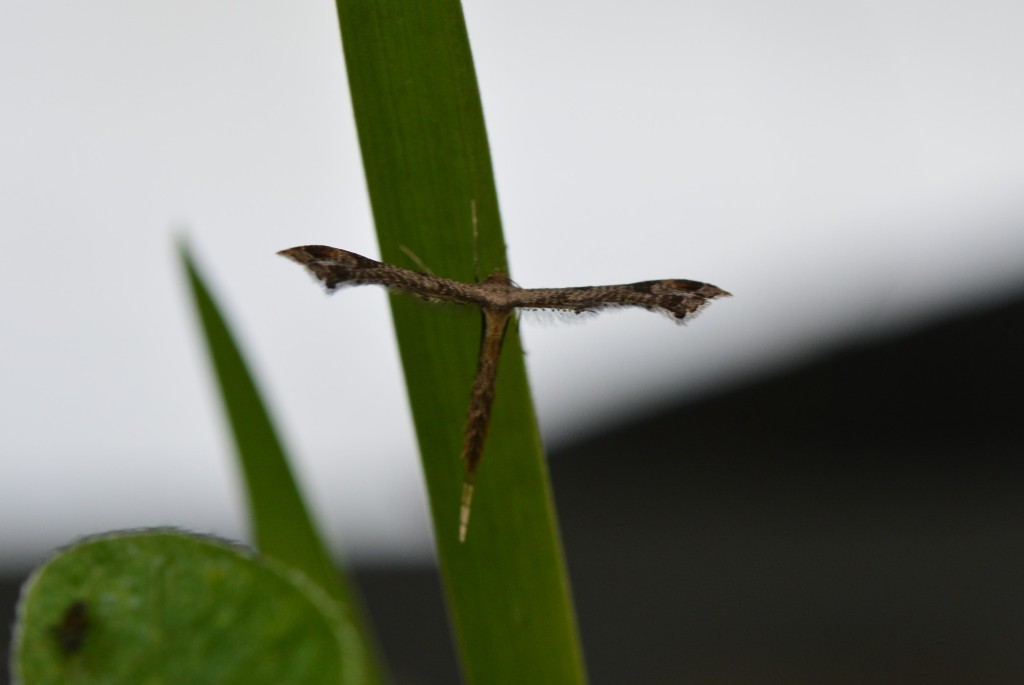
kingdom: Animalia
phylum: Arthropoda
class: Insecta
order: Lepidoptera
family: Pterophoridae
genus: Lantanophaga
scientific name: Lantanophaga pusillidactylus
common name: Moth
